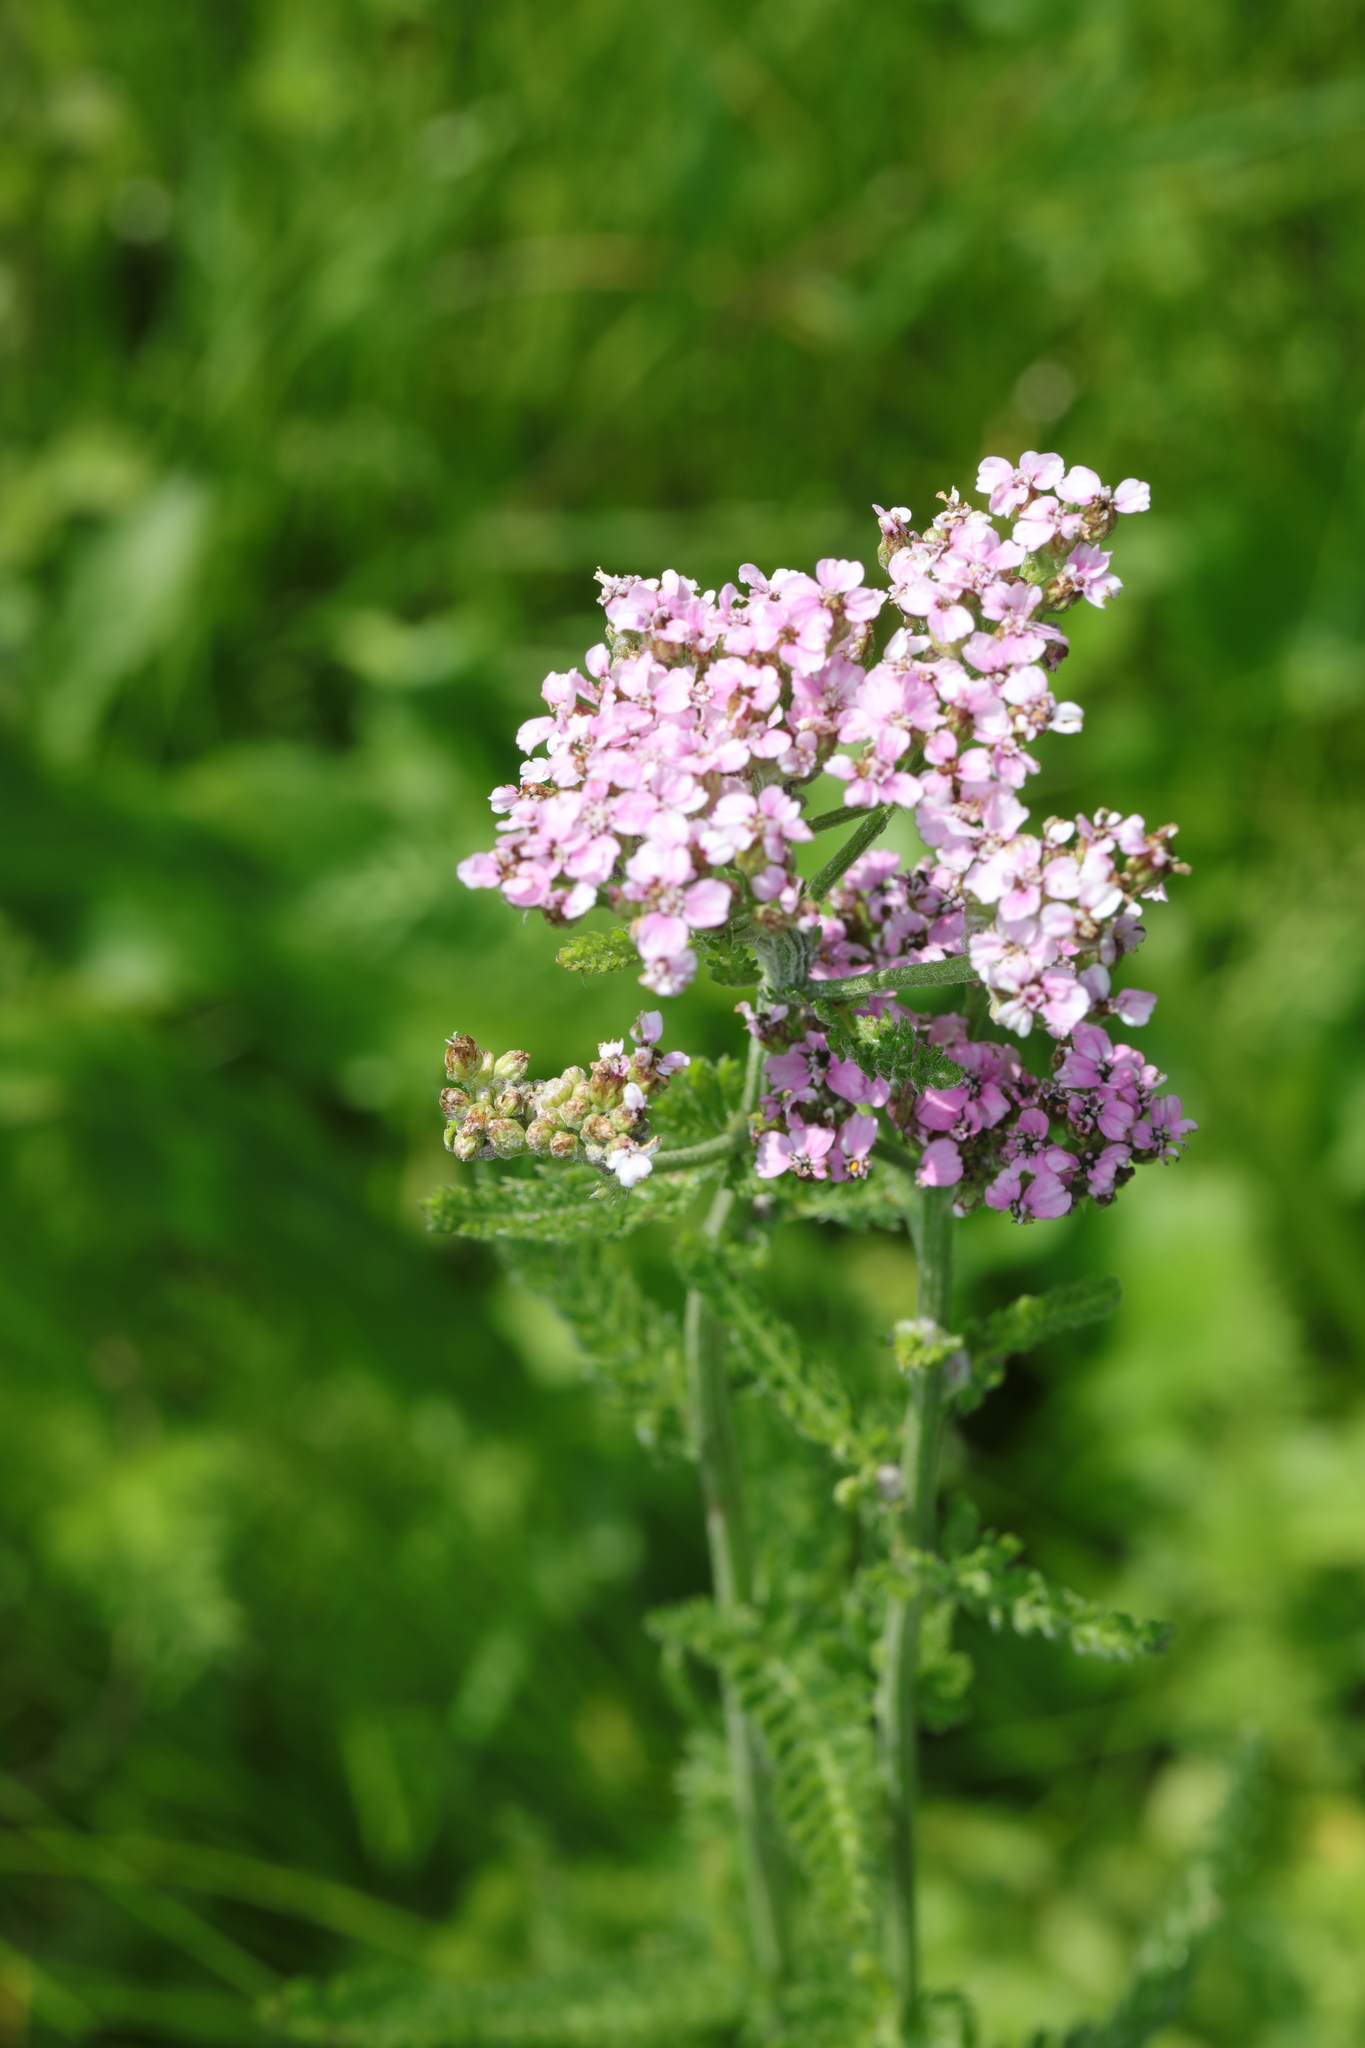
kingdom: Plantae
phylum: Tracheophyta
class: Magnoliopsida
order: Asterales
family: Asteraceae
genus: Achillea
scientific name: Achillea millefolium
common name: Yarrow
